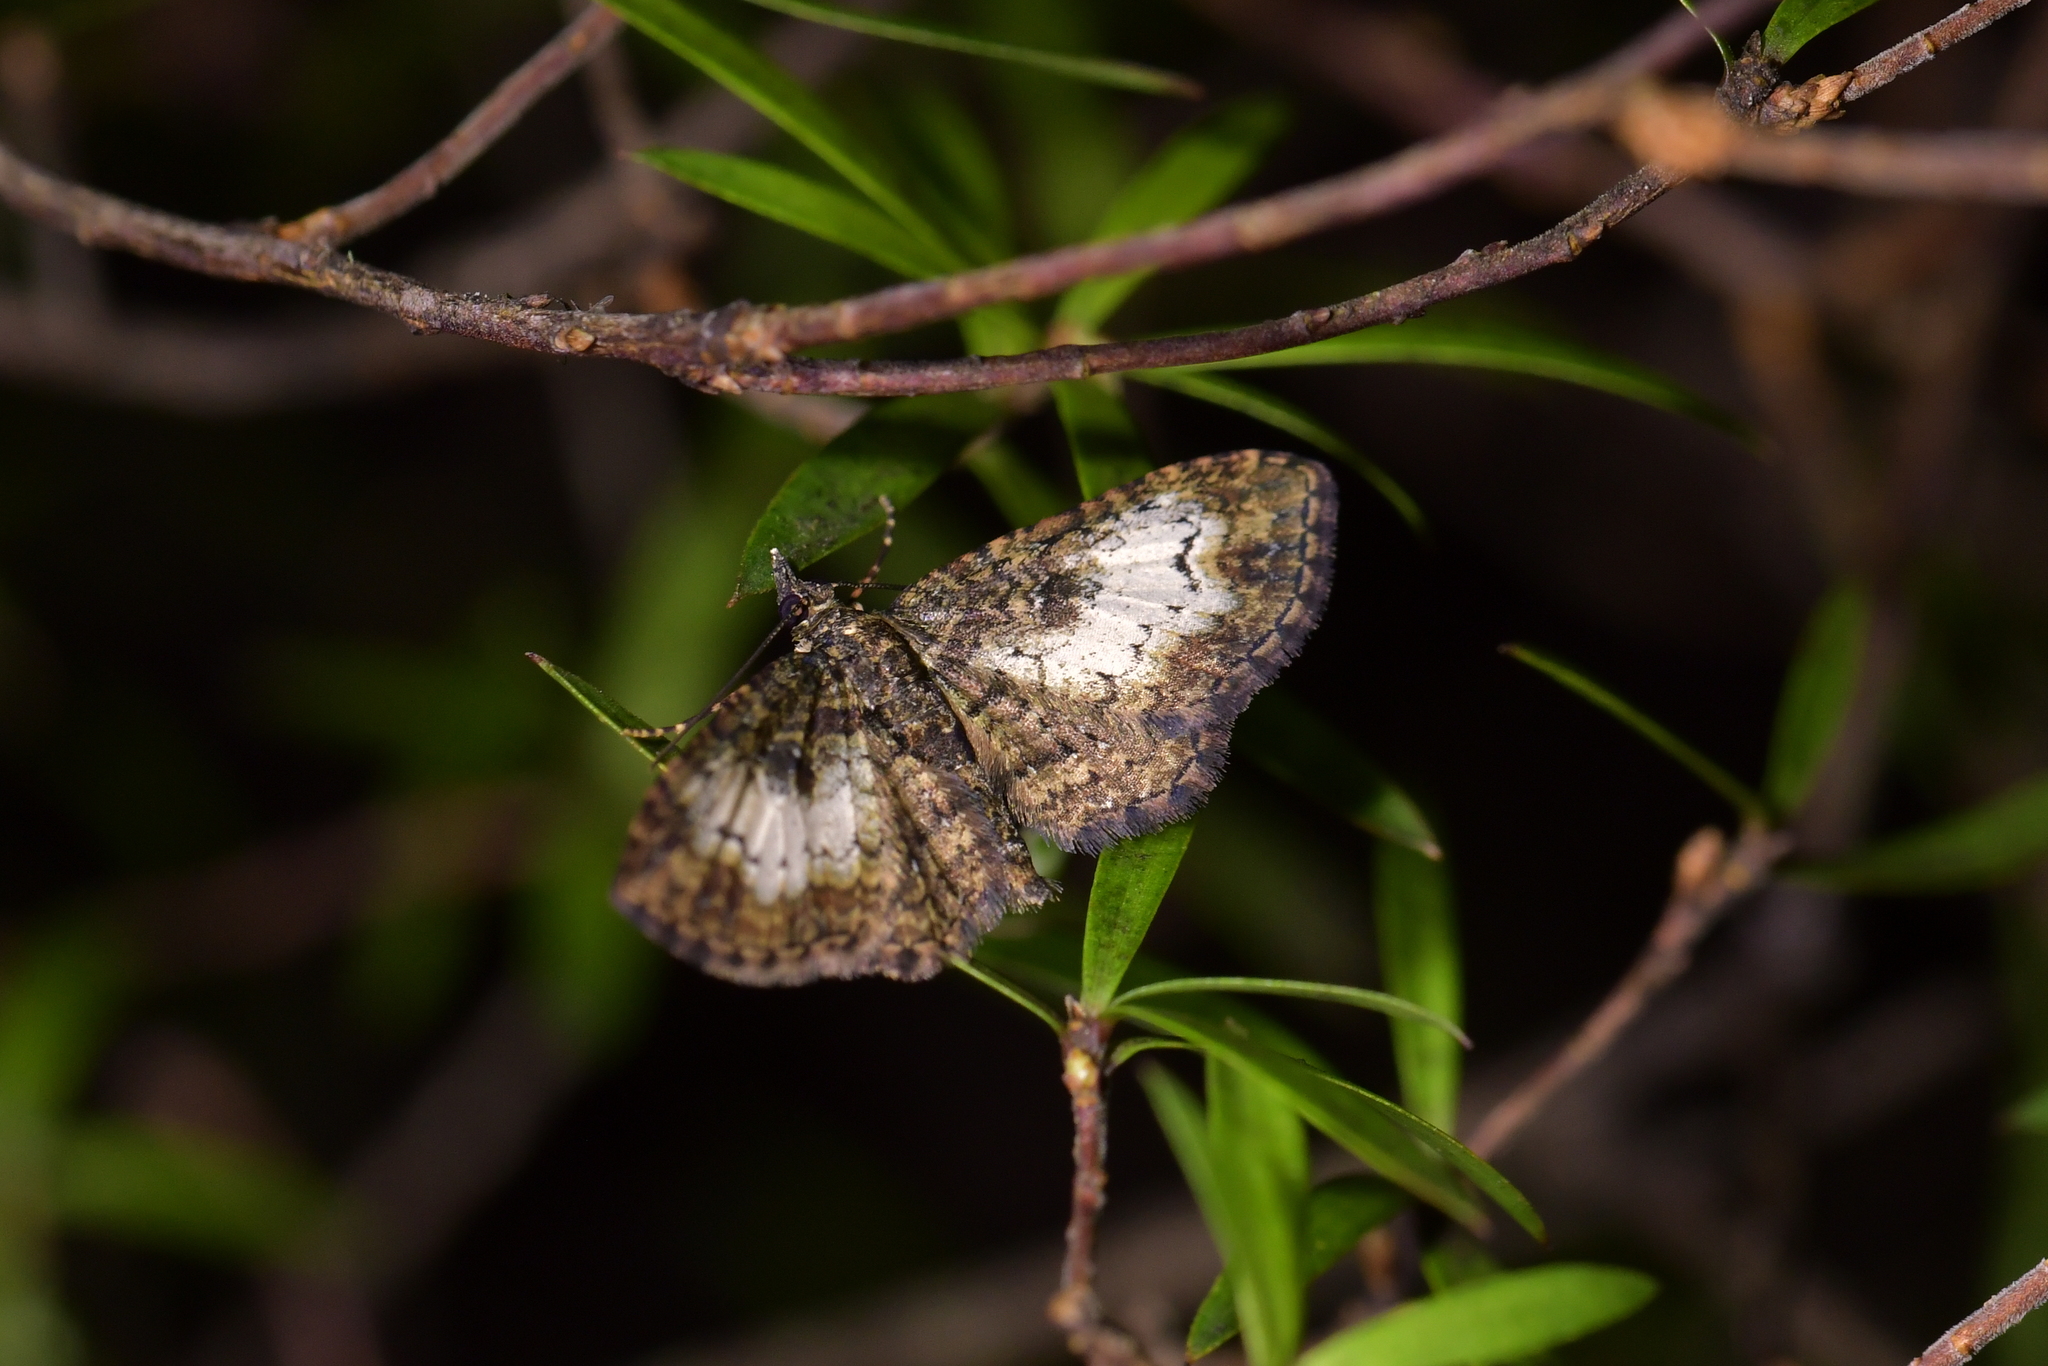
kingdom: Animalia
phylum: Arthropoda
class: Insecta
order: Lepidoptera
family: Geometridae
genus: Pasiphilodes
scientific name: Pasiphilodes testulata
